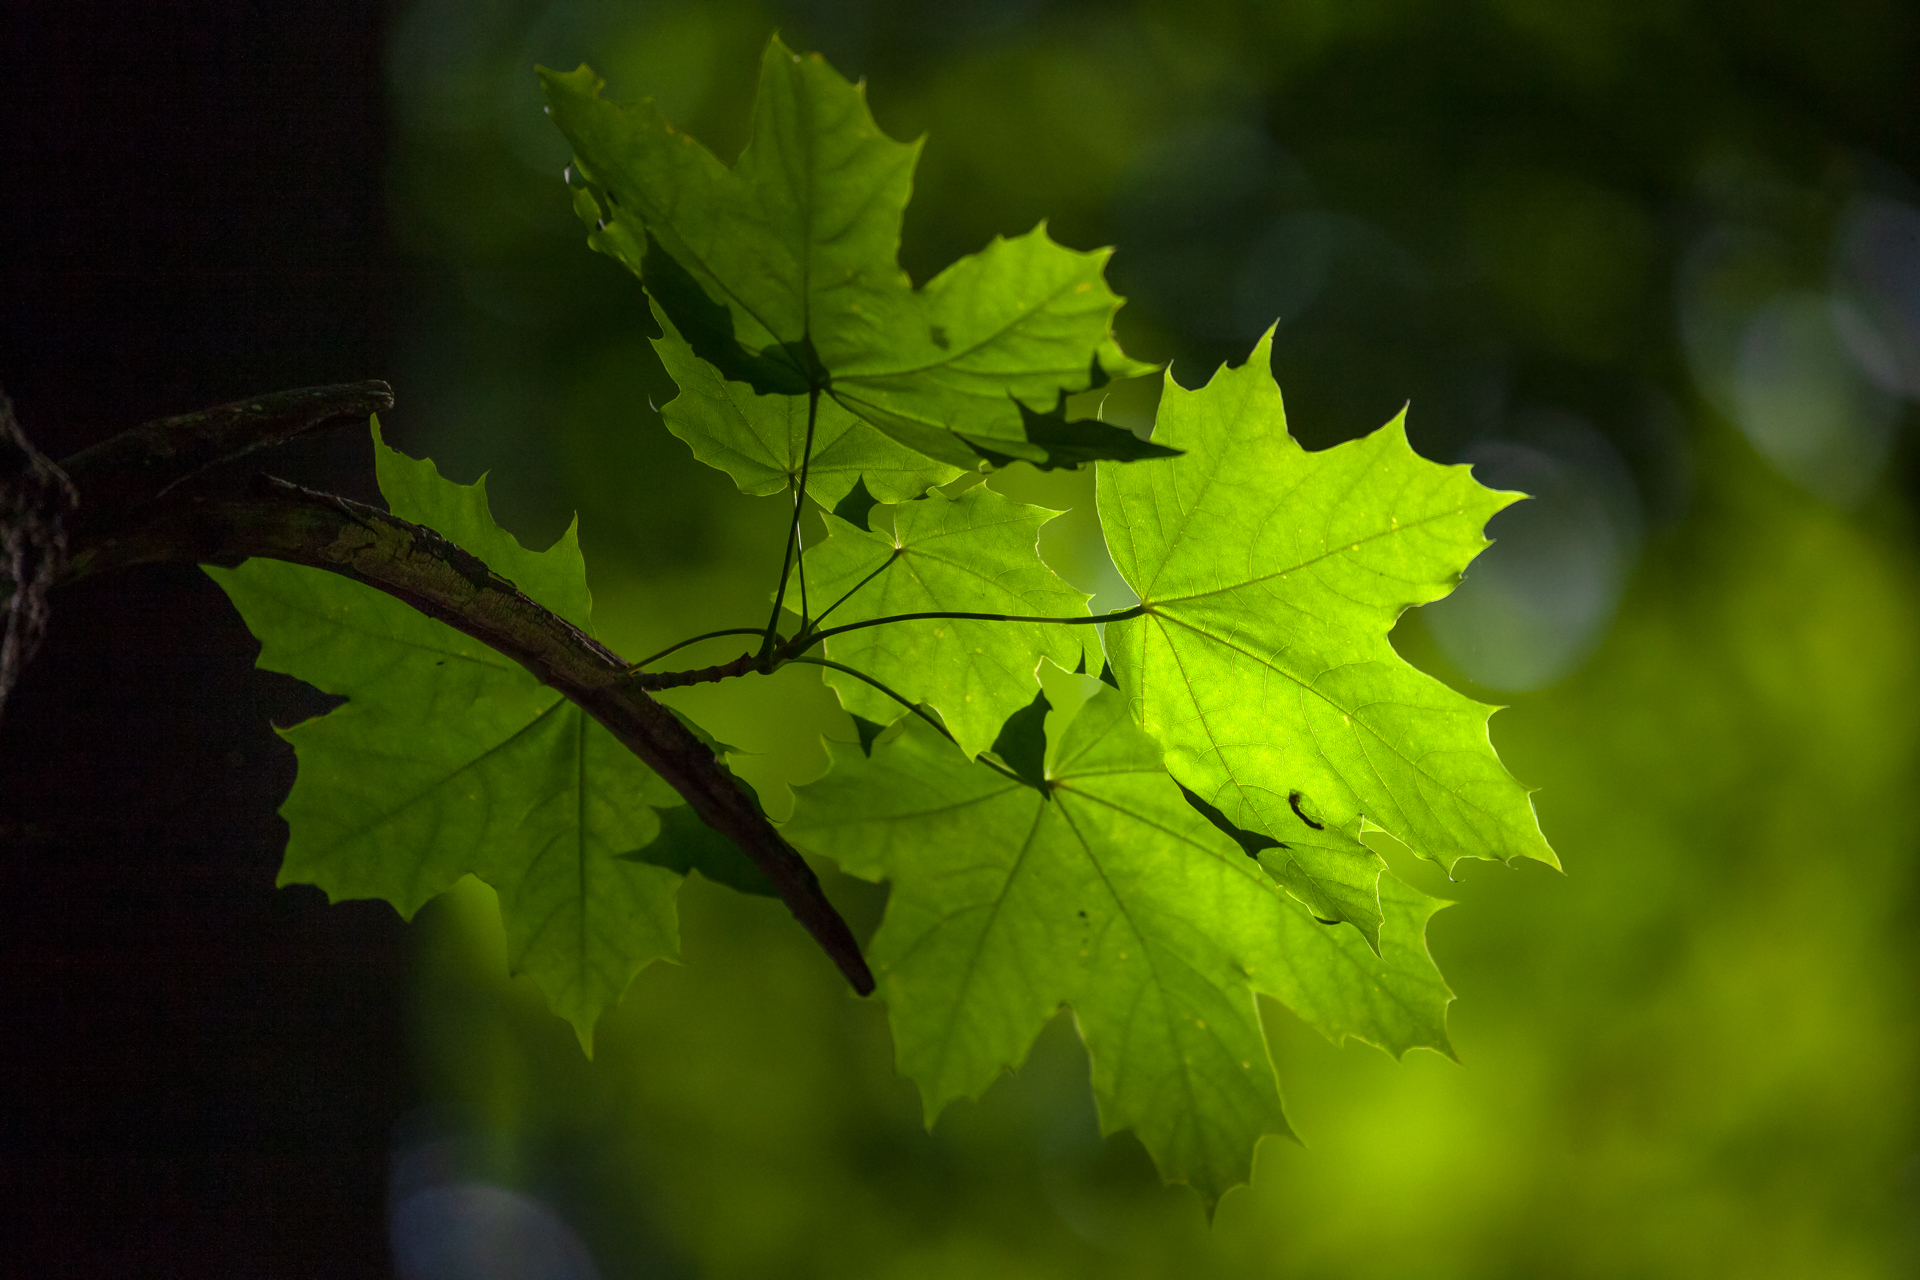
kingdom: Plantae
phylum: Tracheophyta
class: Magnoliopsida
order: Sapindales
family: Sapindaceae
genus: Acer
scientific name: Acer platanoides
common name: Norway maple
